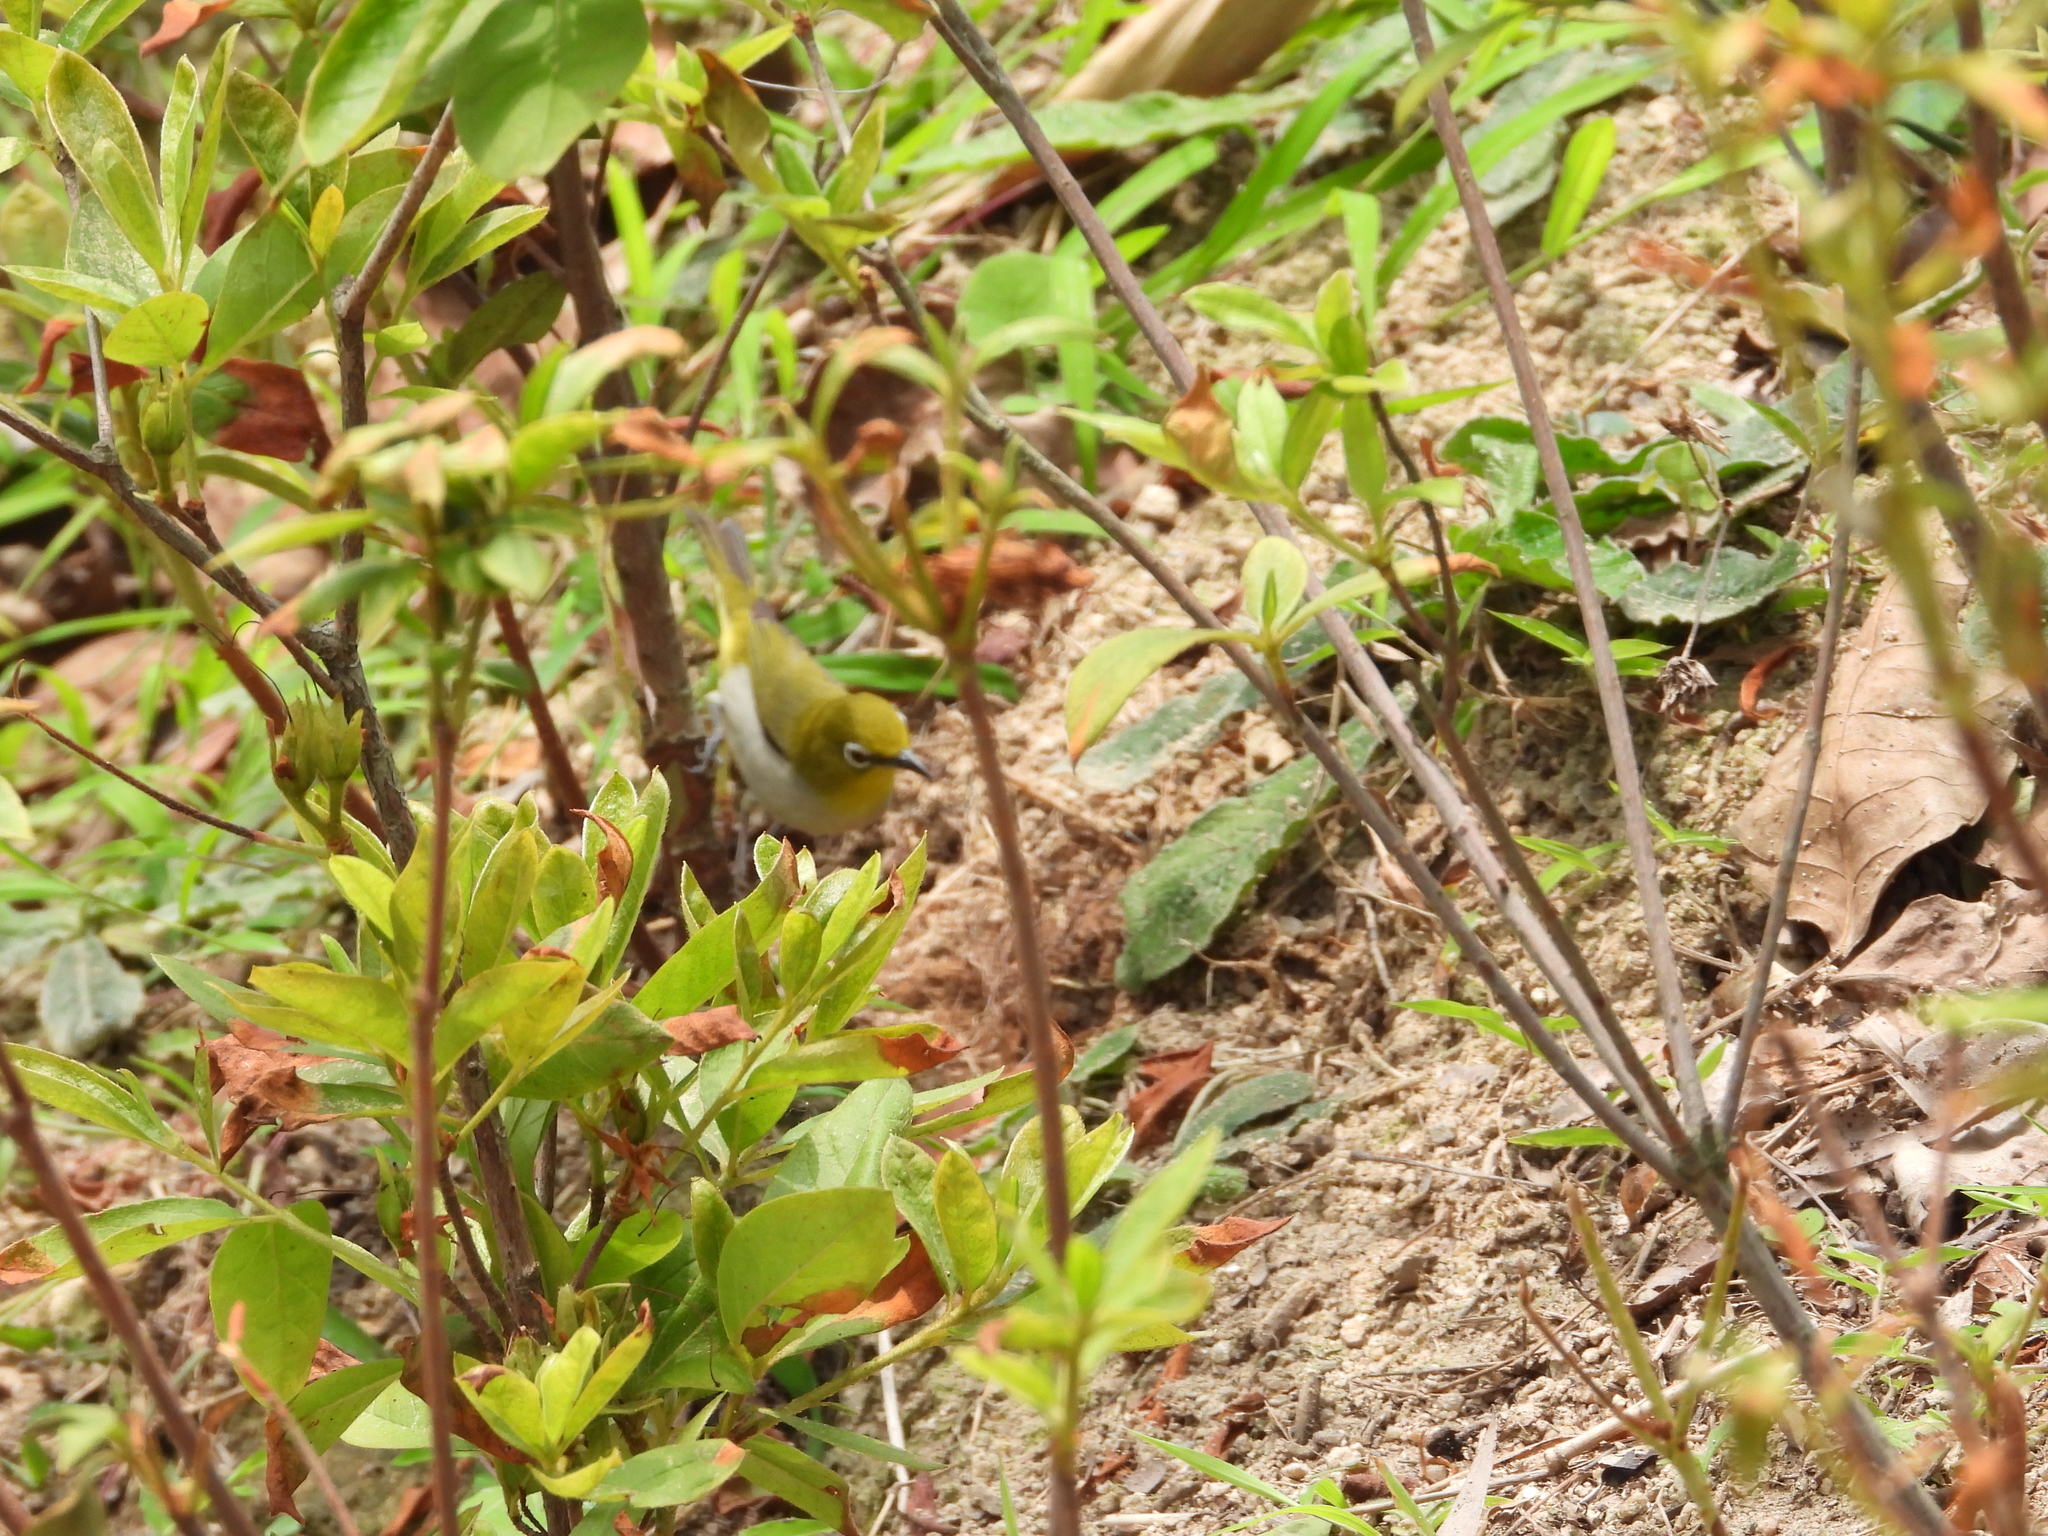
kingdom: Animalia
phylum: Chordata
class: Aves
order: Passeriformes
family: Zosteropidae
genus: Zosterops
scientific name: Zosterops simplex
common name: Swinhoe's white-eye
